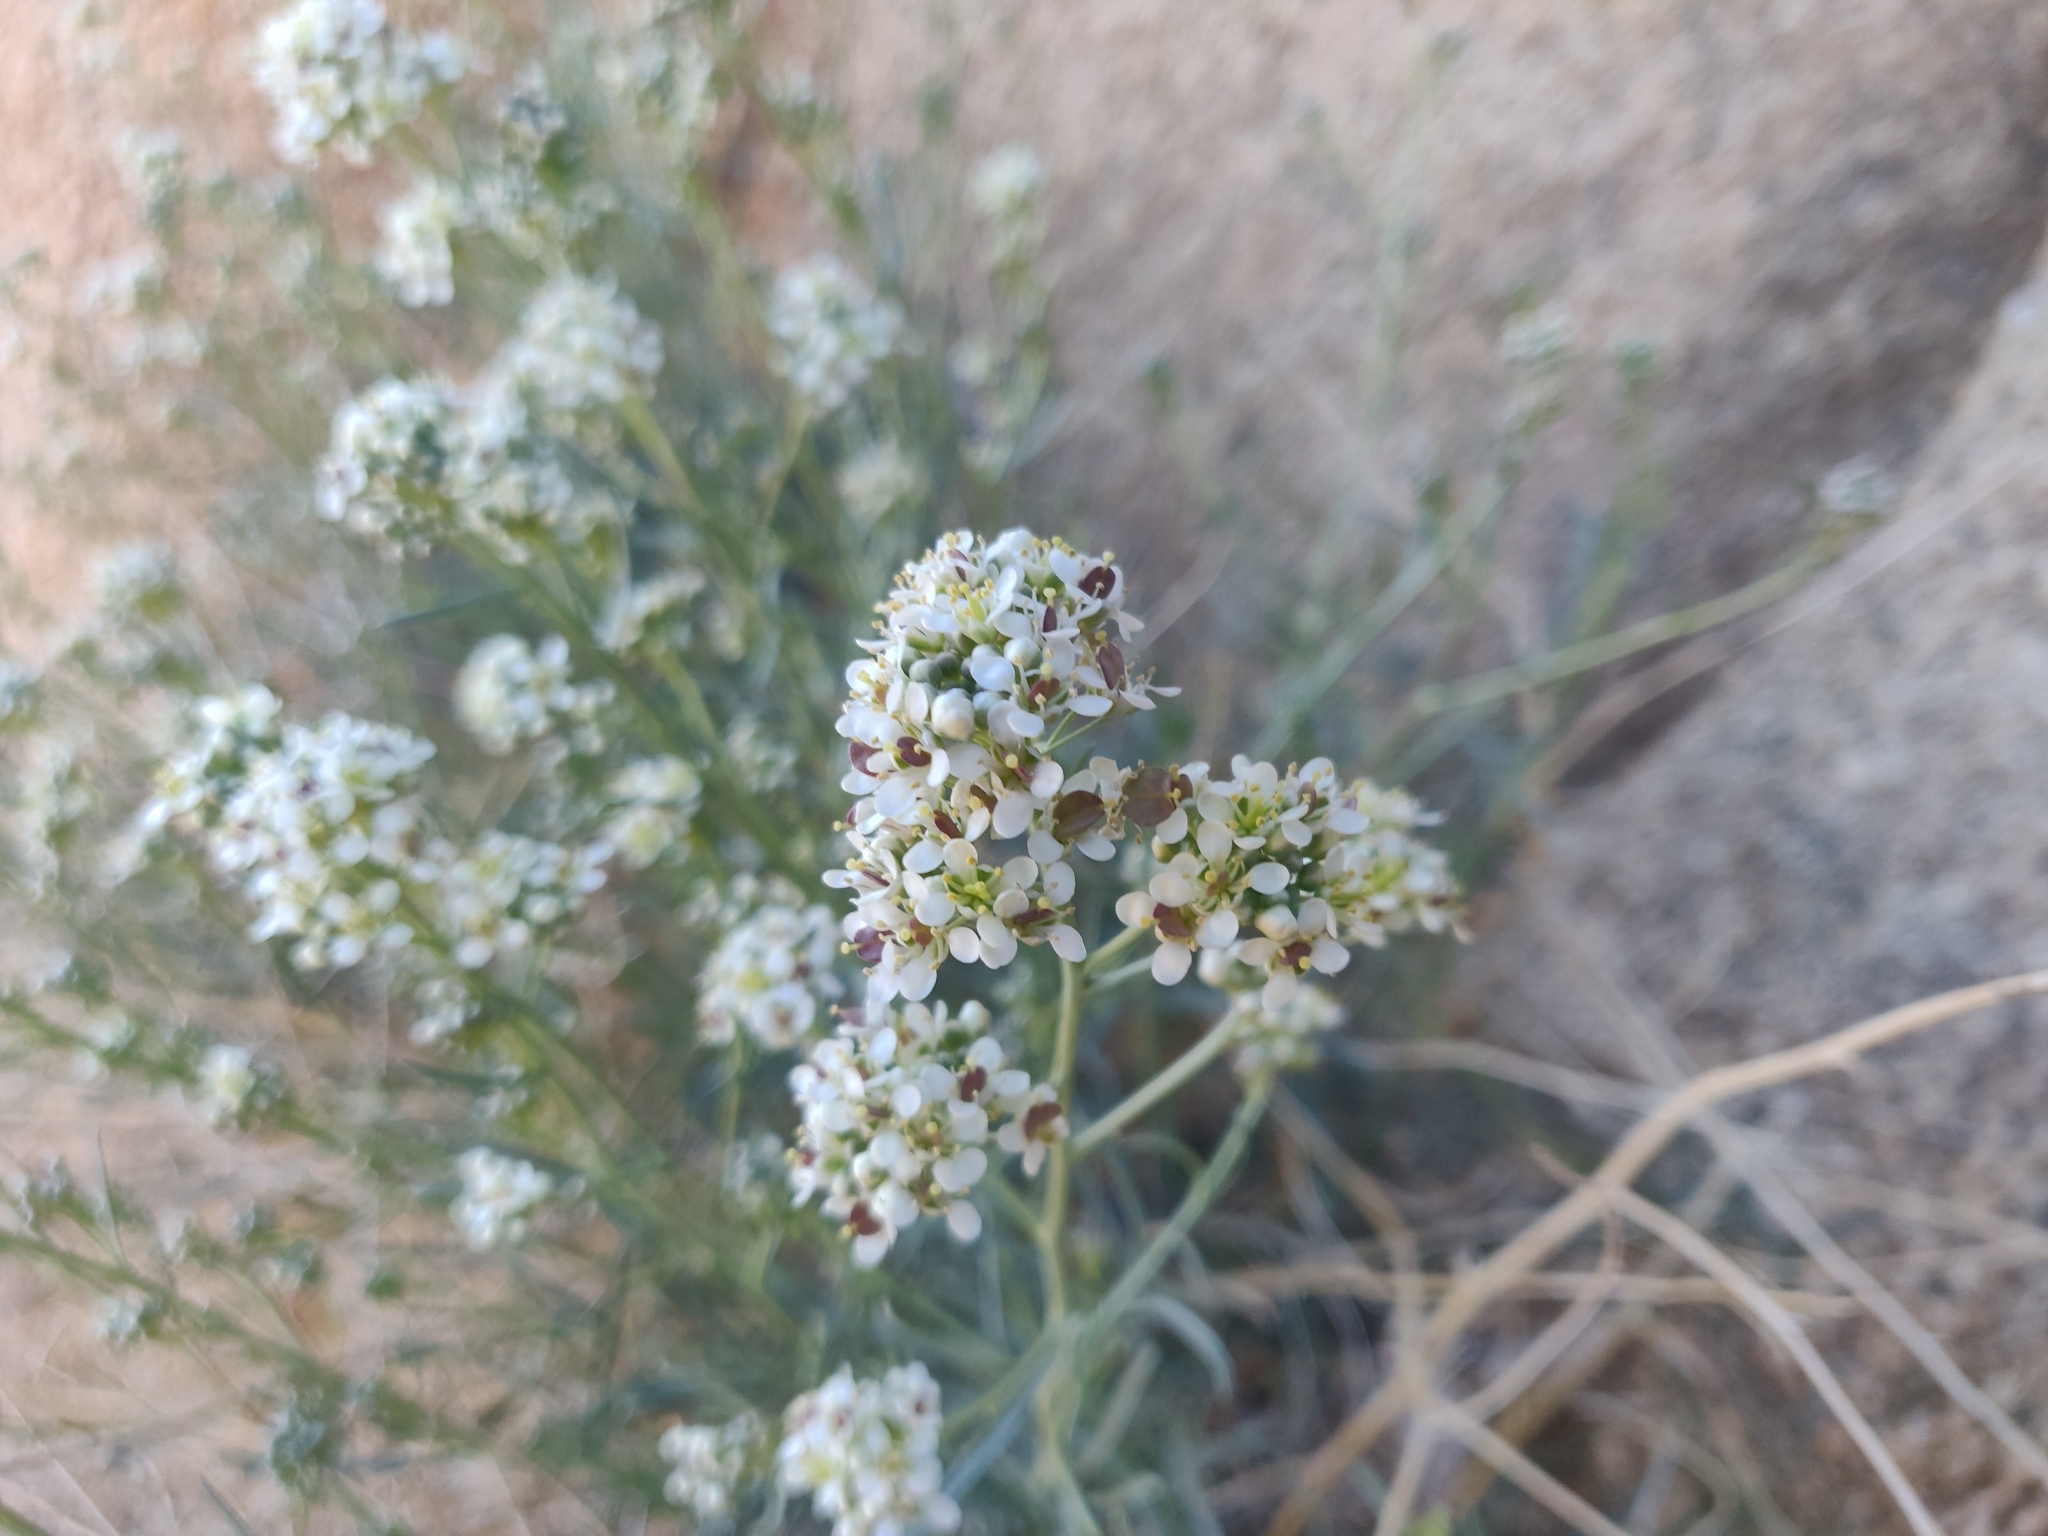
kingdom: Plantae
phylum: Tracheophyta
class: Magnoliopsida
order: Brassicales
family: Brassicaceae
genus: Lepidium
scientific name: Lepidium fremontii
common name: Fremont's pepperwort
